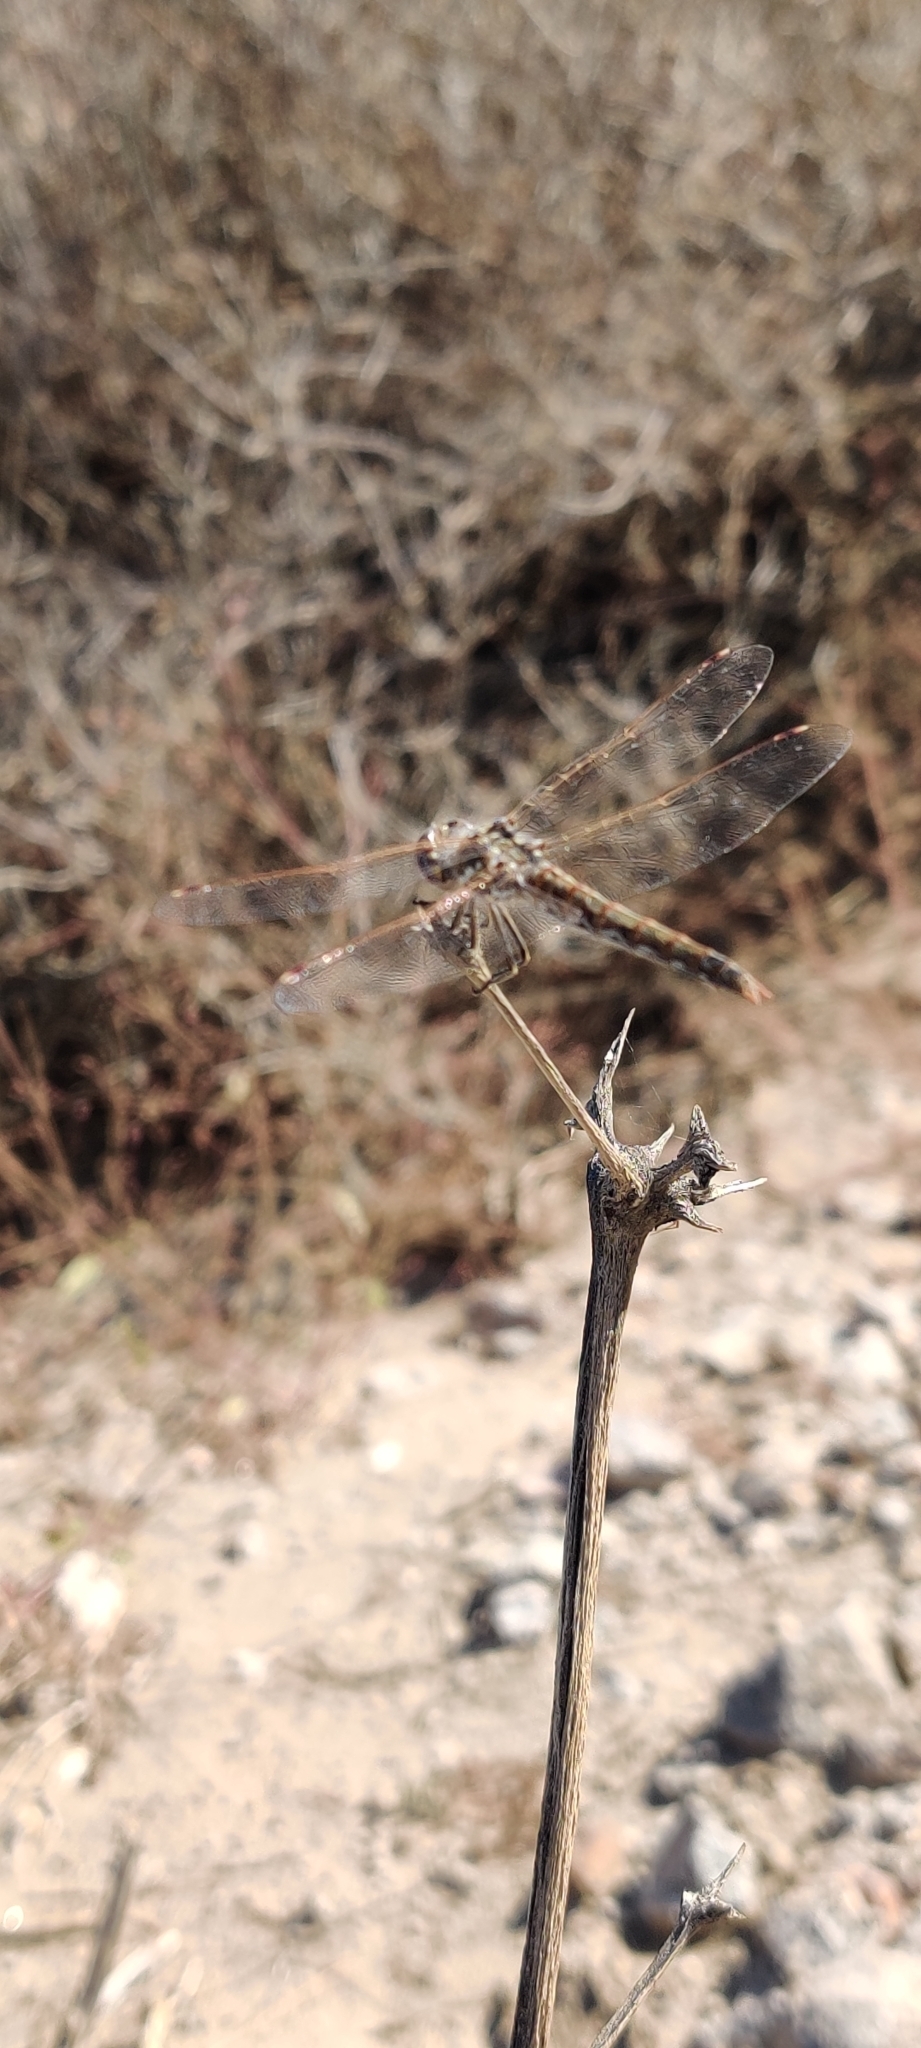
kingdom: Animalia
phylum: Arthropoda
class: Insecta
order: Odonata
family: Libellulidae
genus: Sympetrum
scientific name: Sympetrum corruptum
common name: Variegated meadowhawk
